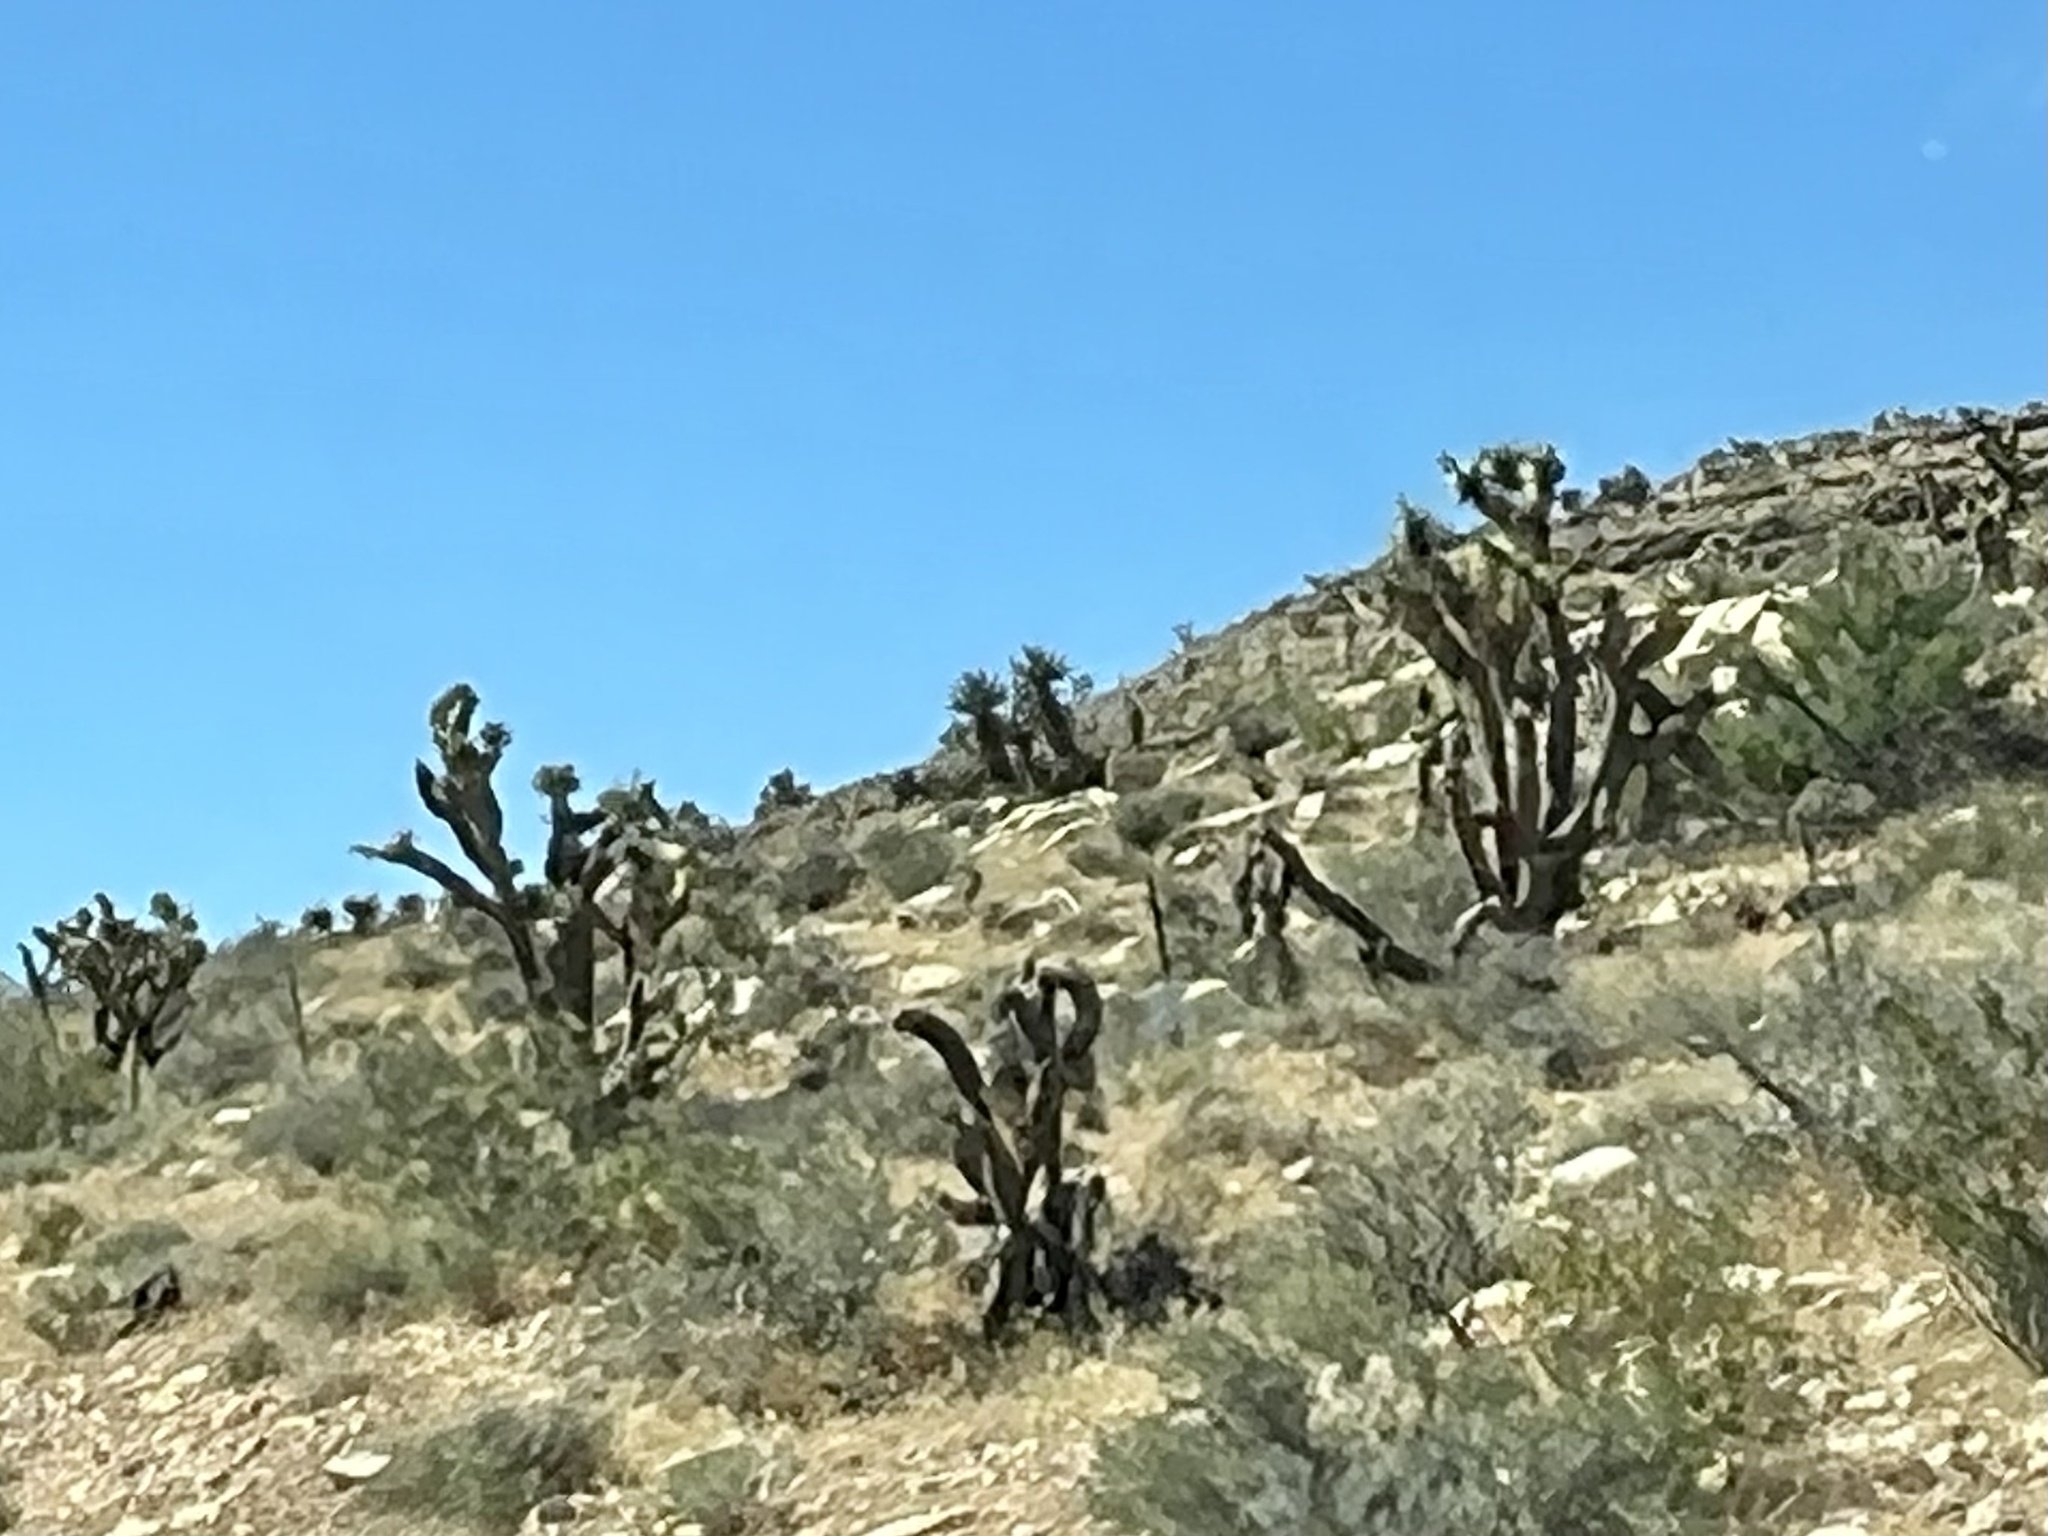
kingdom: Plantae
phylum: Tracheophyta
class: Liliopsida
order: Asparagales
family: Asparagaceae
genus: Yucca
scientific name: Yucca brevifolia
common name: Joshua tree
